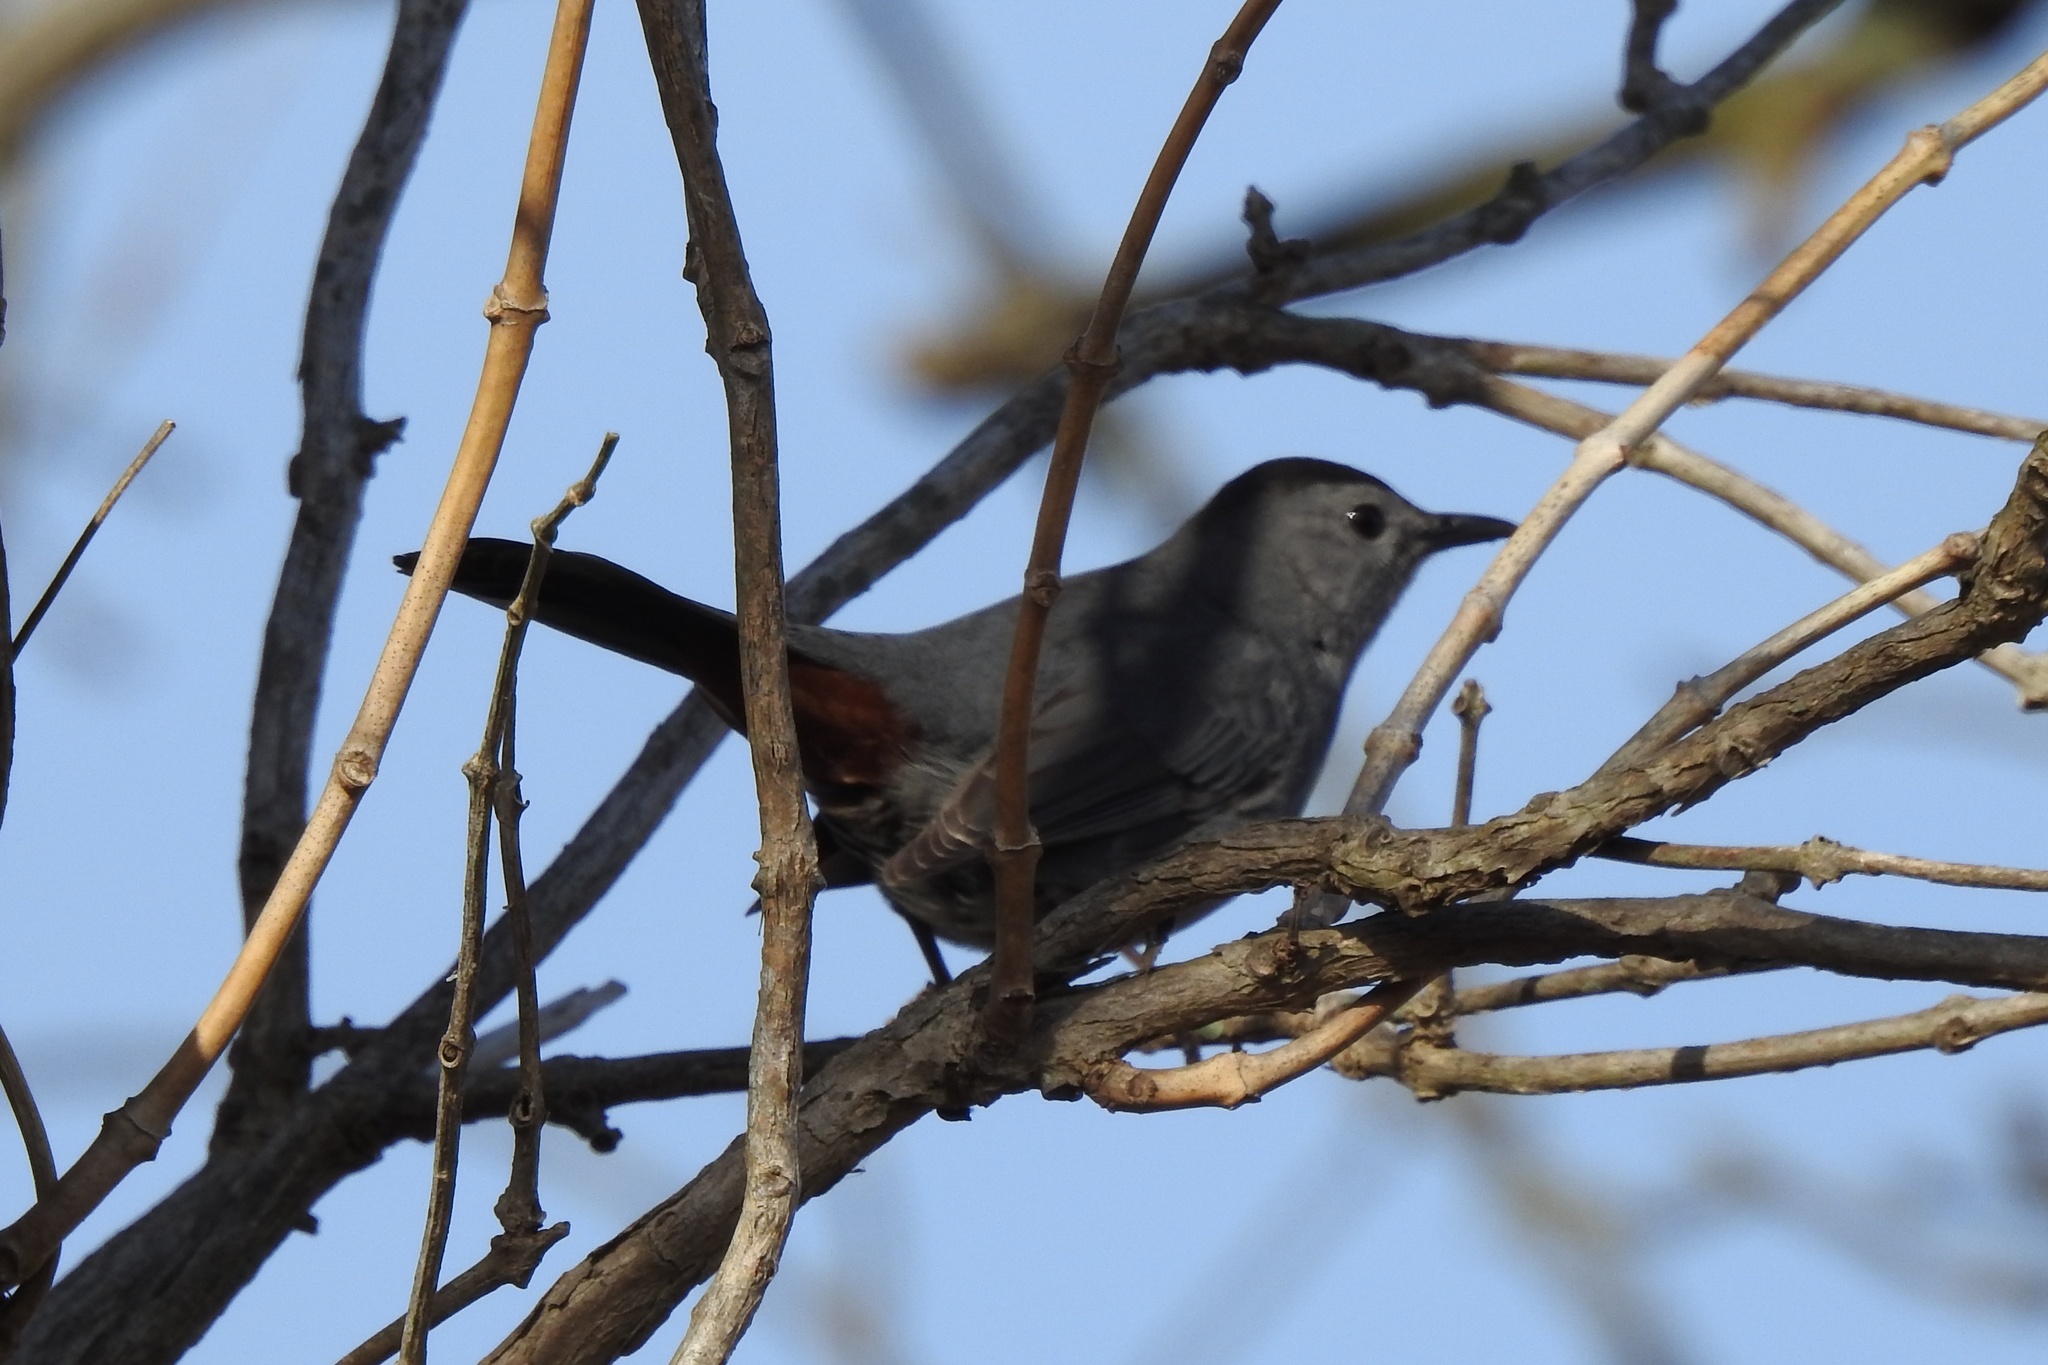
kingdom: Animalia
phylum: Chordata
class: Aves
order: Passeriformes
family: Mimidae
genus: Dumetella
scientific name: Dumetella carolinensis
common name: Gray catbird
